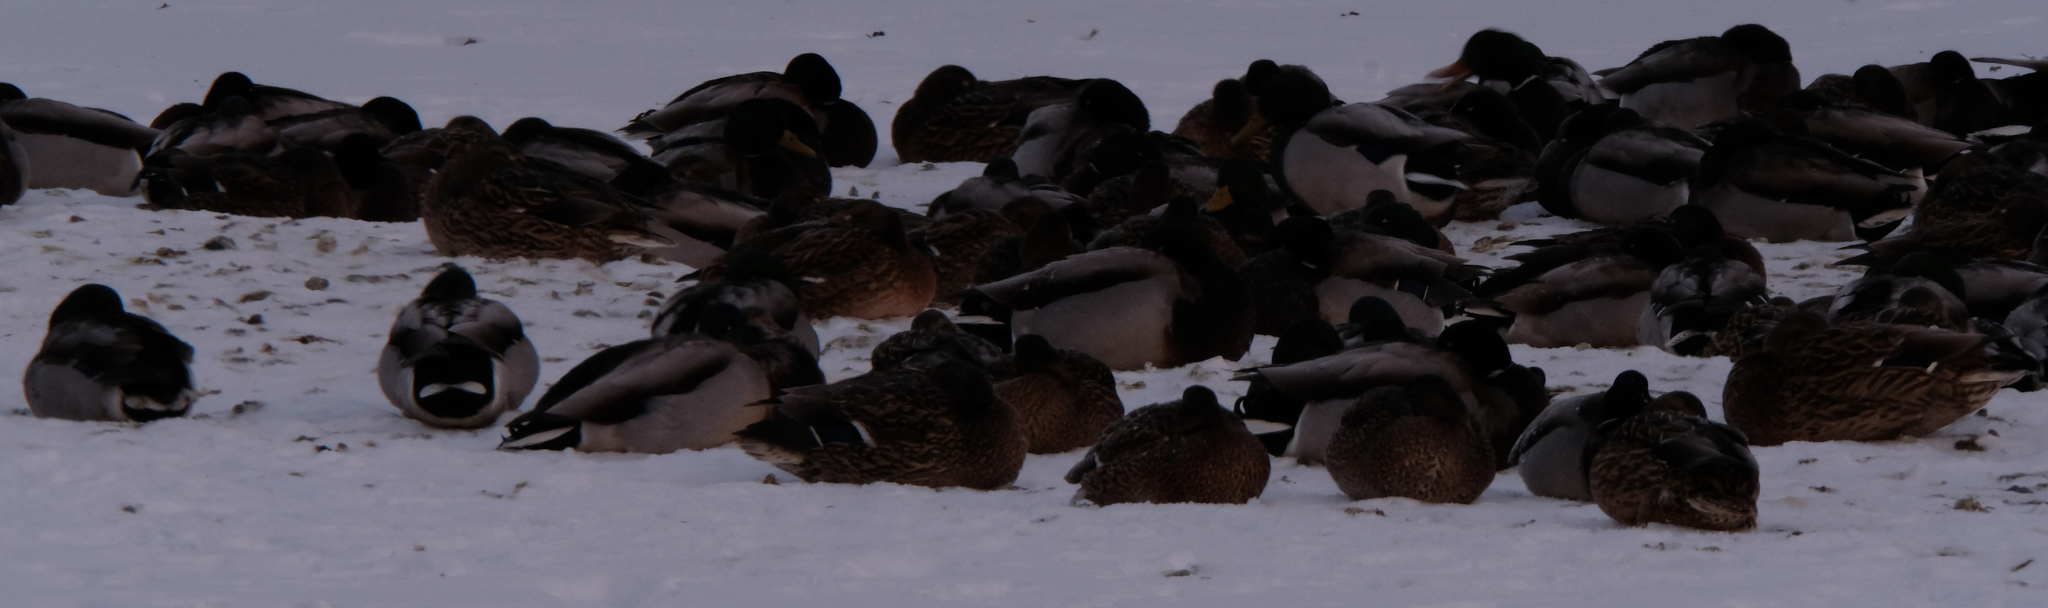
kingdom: Animalia
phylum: Chordata
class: Aves
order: Anseriformes
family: Anatidae
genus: Anas
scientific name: Anas platyrhynchos
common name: Mallard
